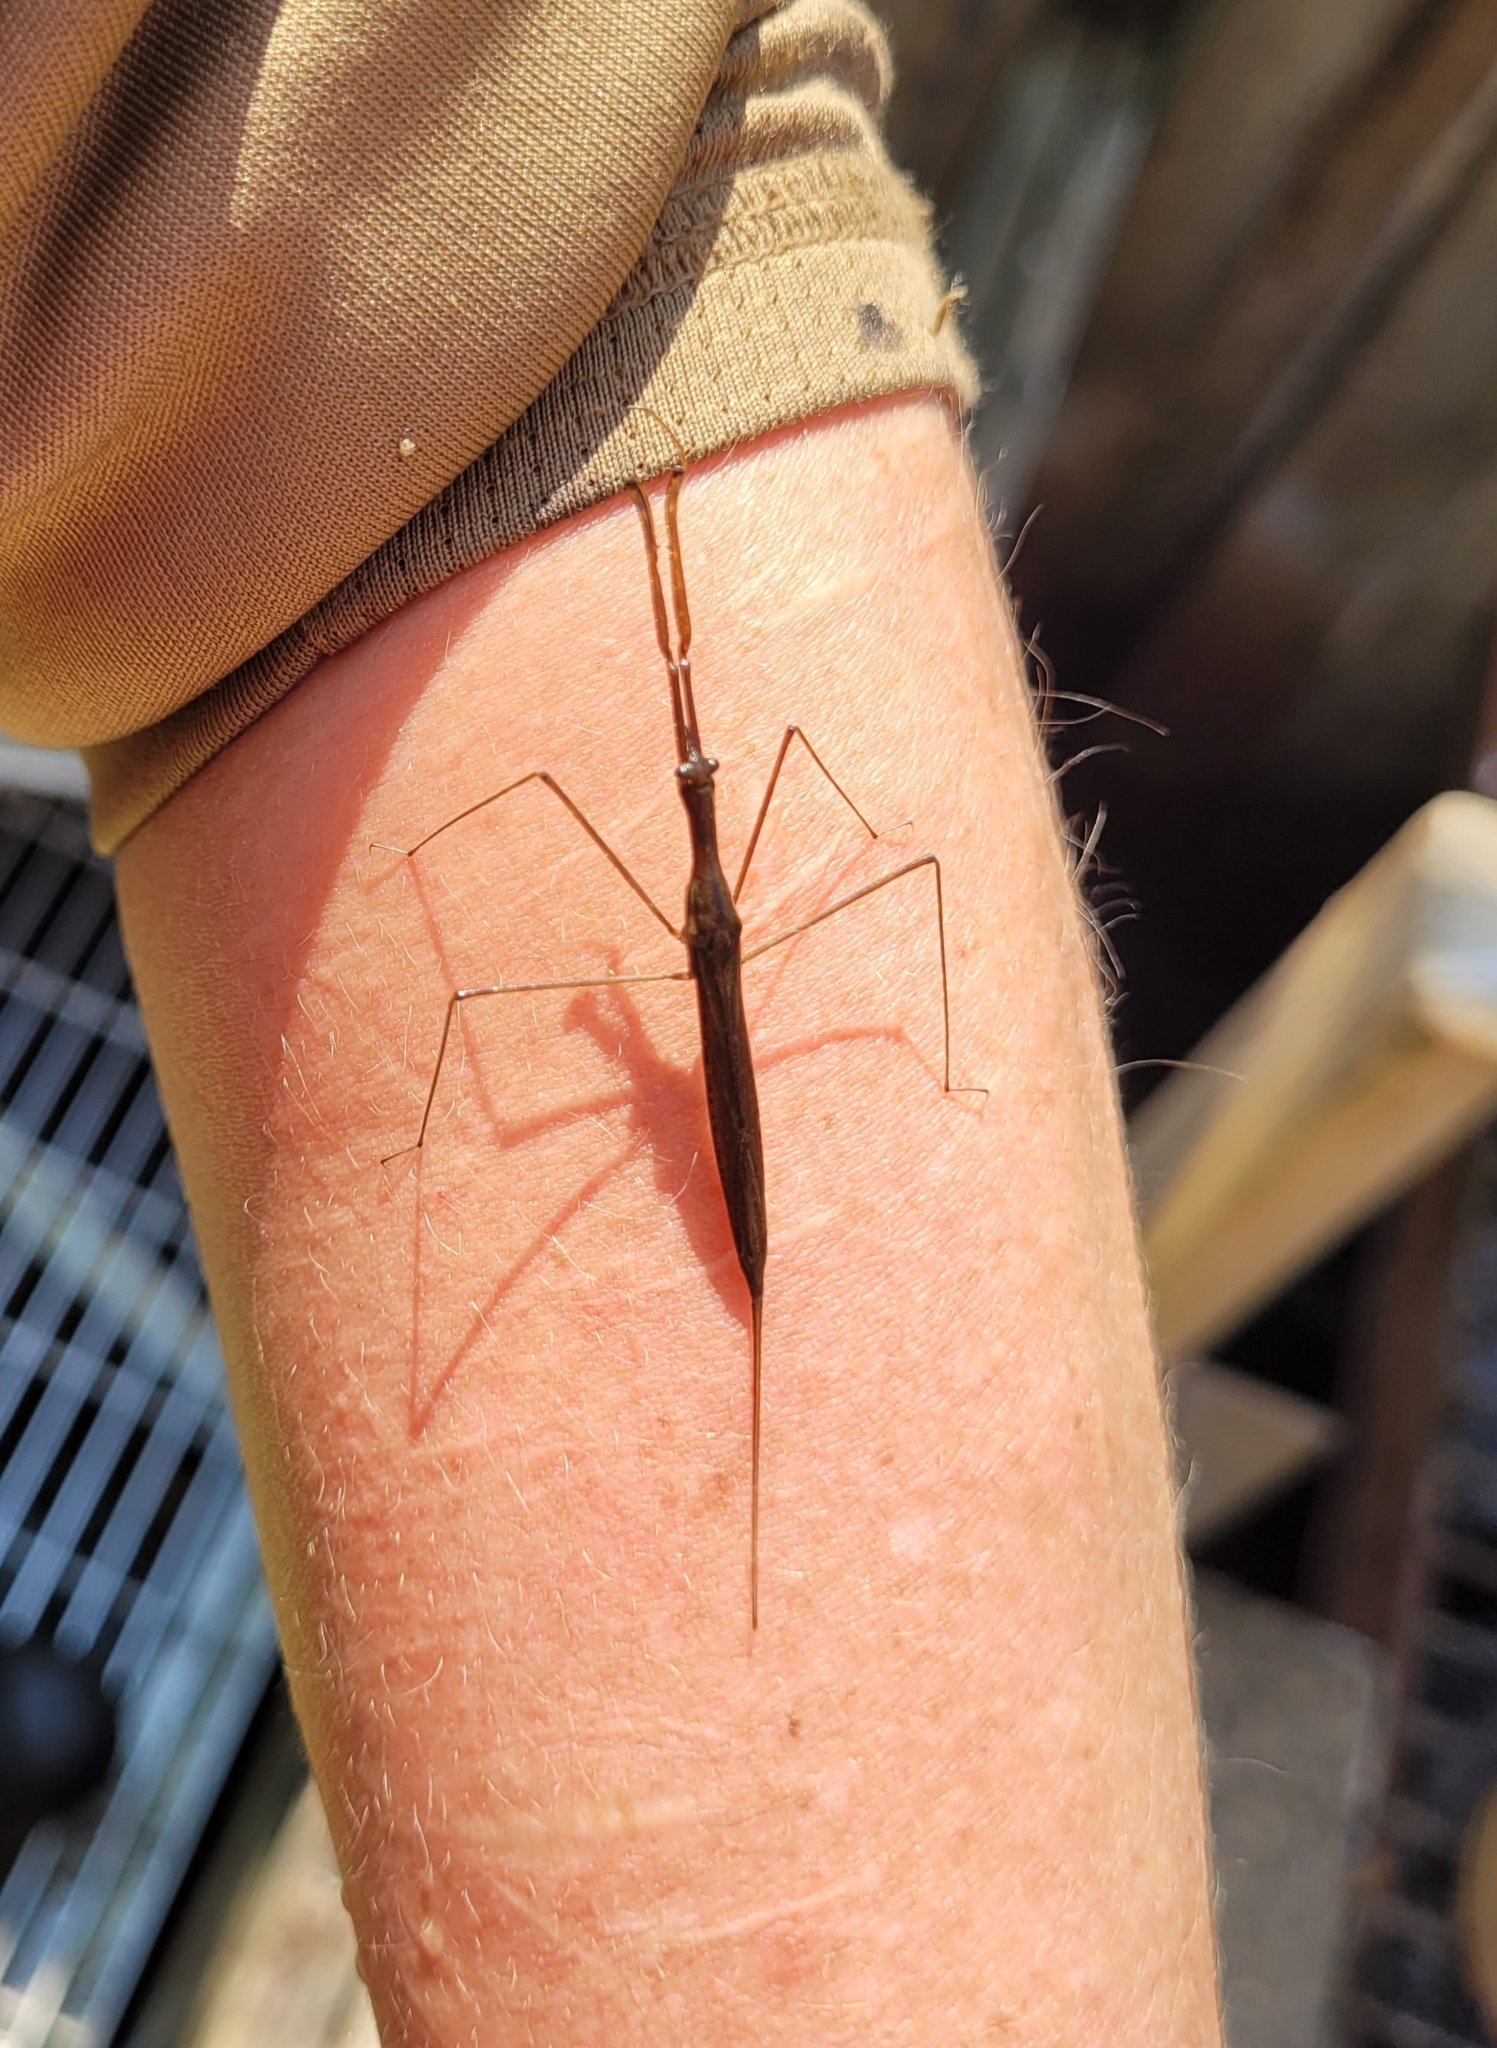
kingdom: Animalia
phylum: Arthropoda
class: Insecta
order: Hemiptera
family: Nepidae
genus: Ranatra
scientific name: Ranatra fusca
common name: Brown waterscorpion
